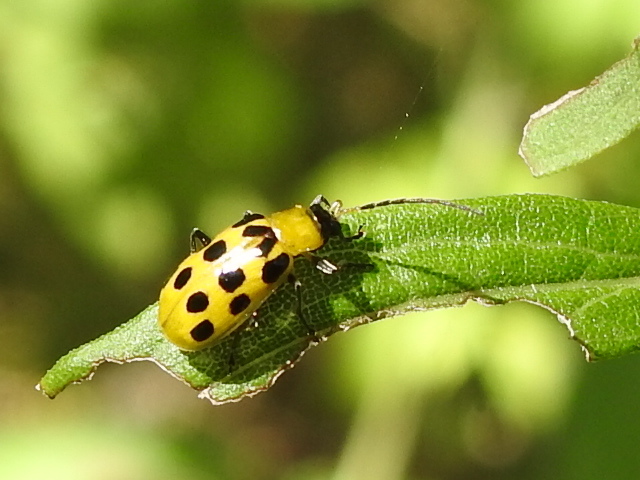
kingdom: Animalia
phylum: Arthropoda
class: Insecta
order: Coleoptera
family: Chrysomelidae
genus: Diabrotica
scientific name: Diabrotica undecimpunctata
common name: Spotted cucumber beetle
